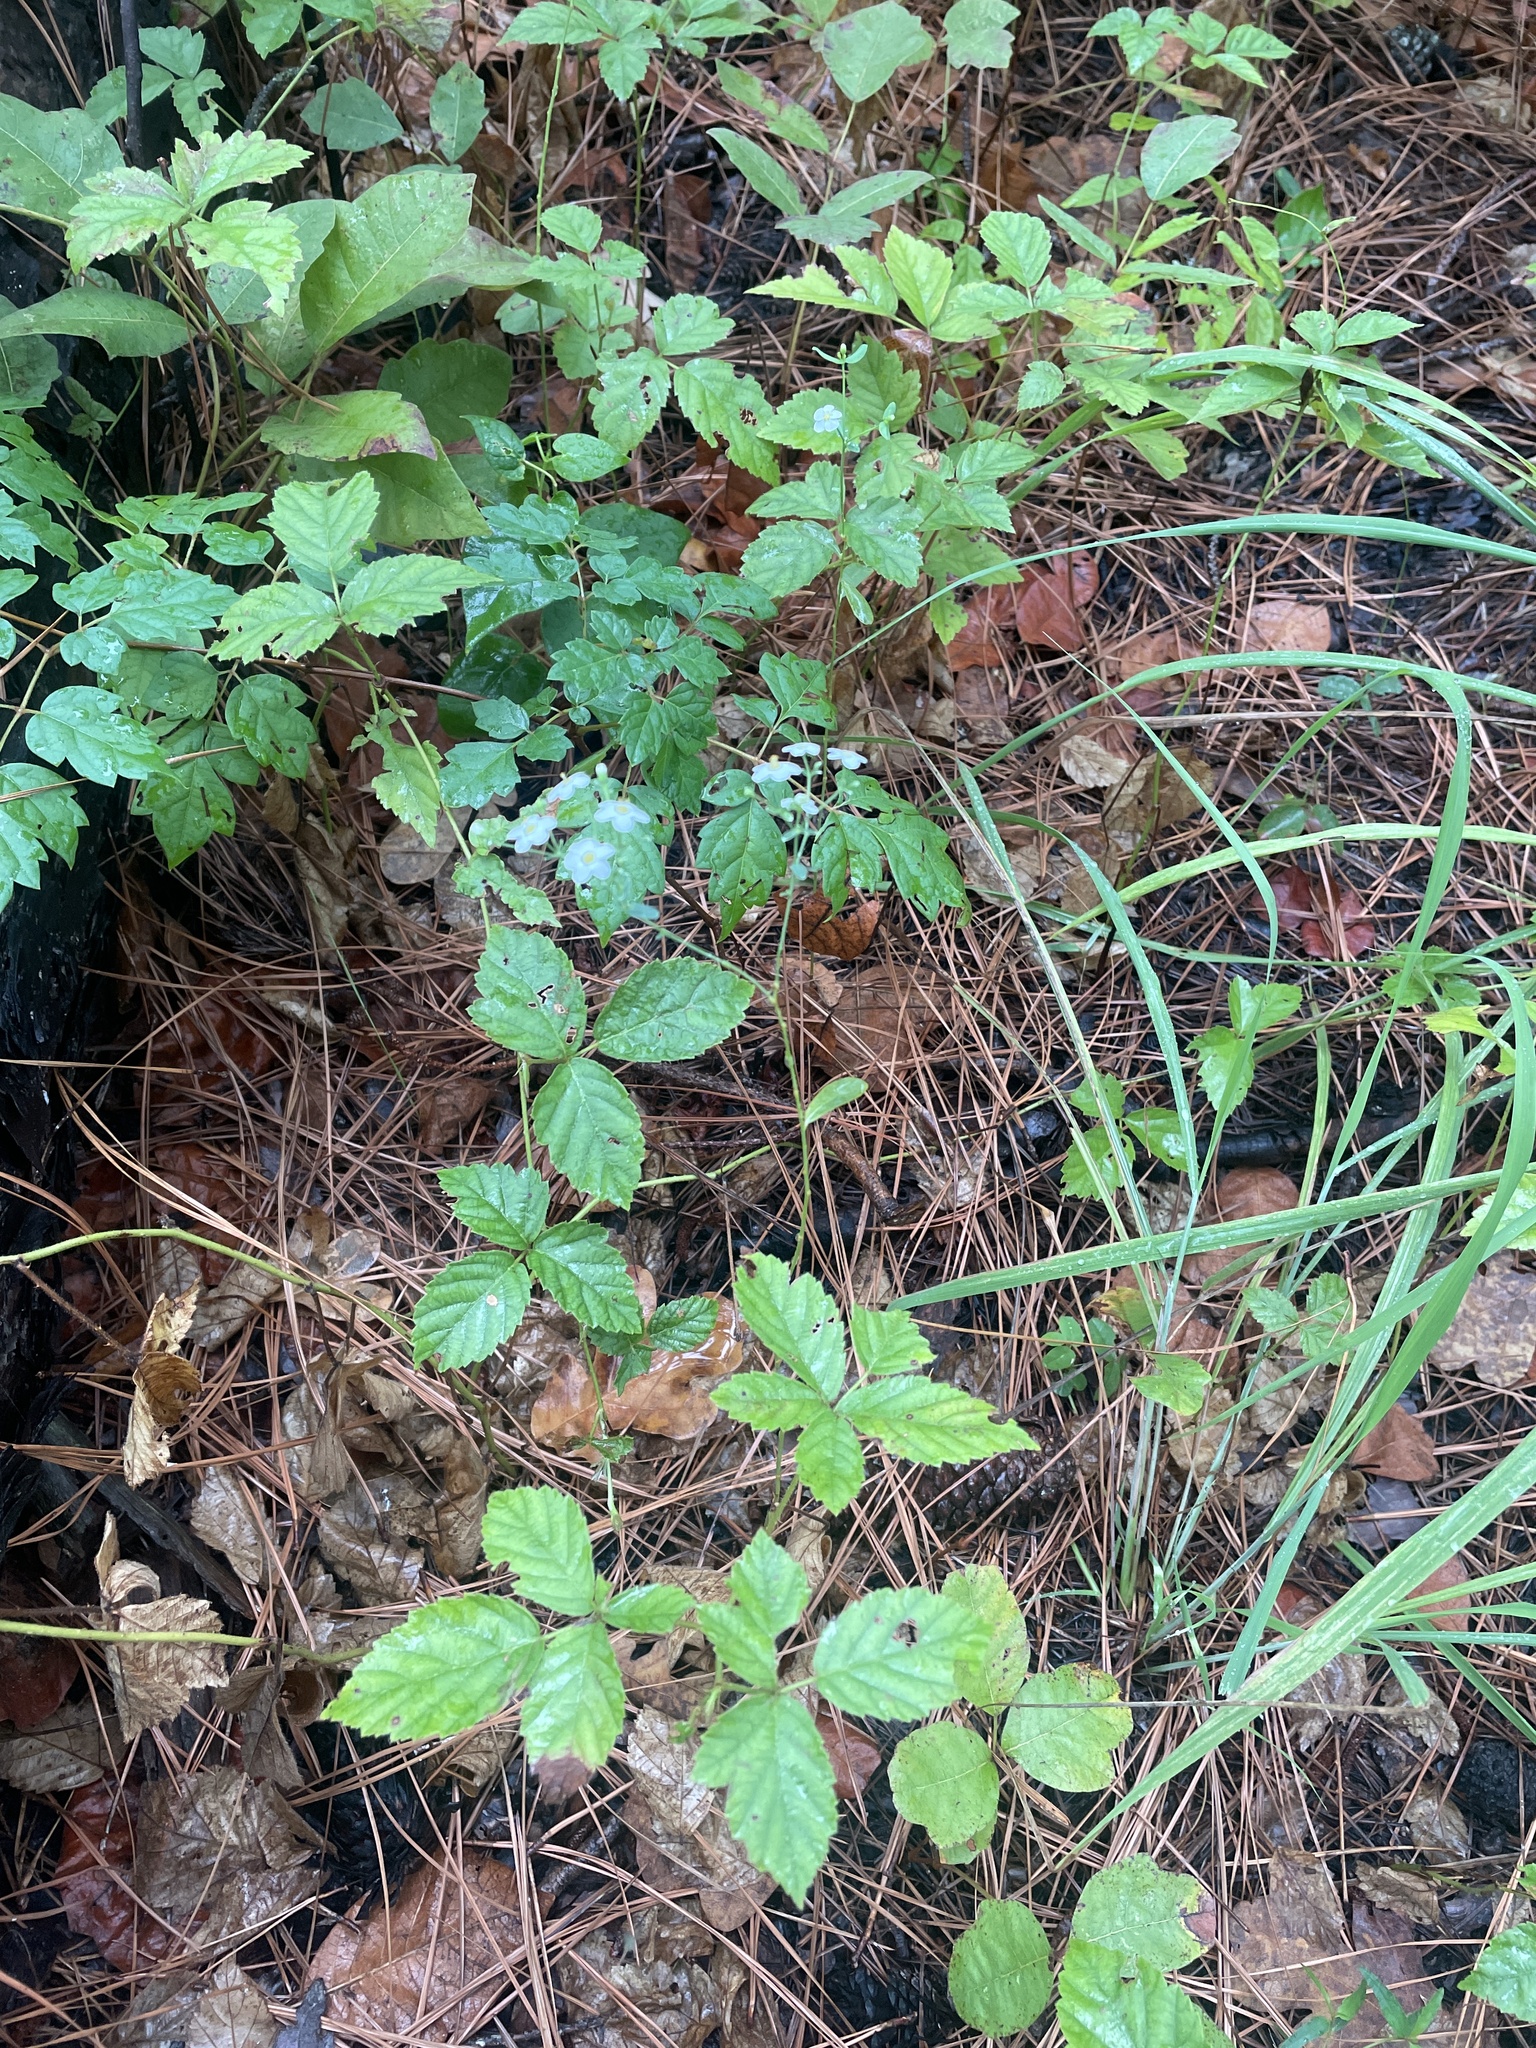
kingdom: Plantae
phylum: Tracheophyta
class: Magnoliopsida
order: Malpighiales
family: Euphorbiaceae
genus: Euphorbia
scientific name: Euphorbia corollata
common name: Flowering spurge
